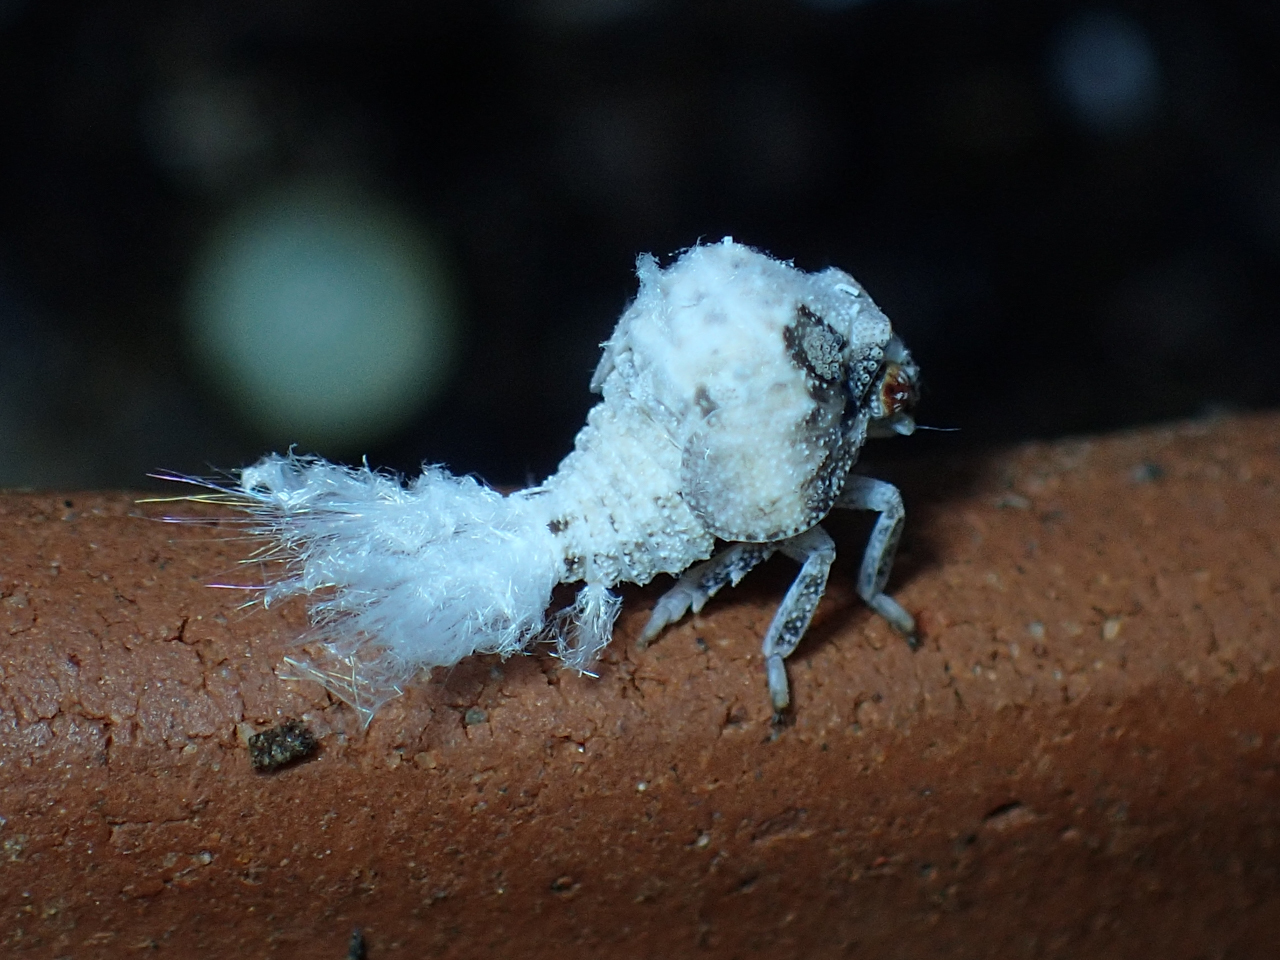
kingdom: Animalia
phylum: Arthropoda
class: Insecta
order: Hemiptera
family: Acanaloniidae
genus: Acanalonia
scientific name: Acanalonia servillei
